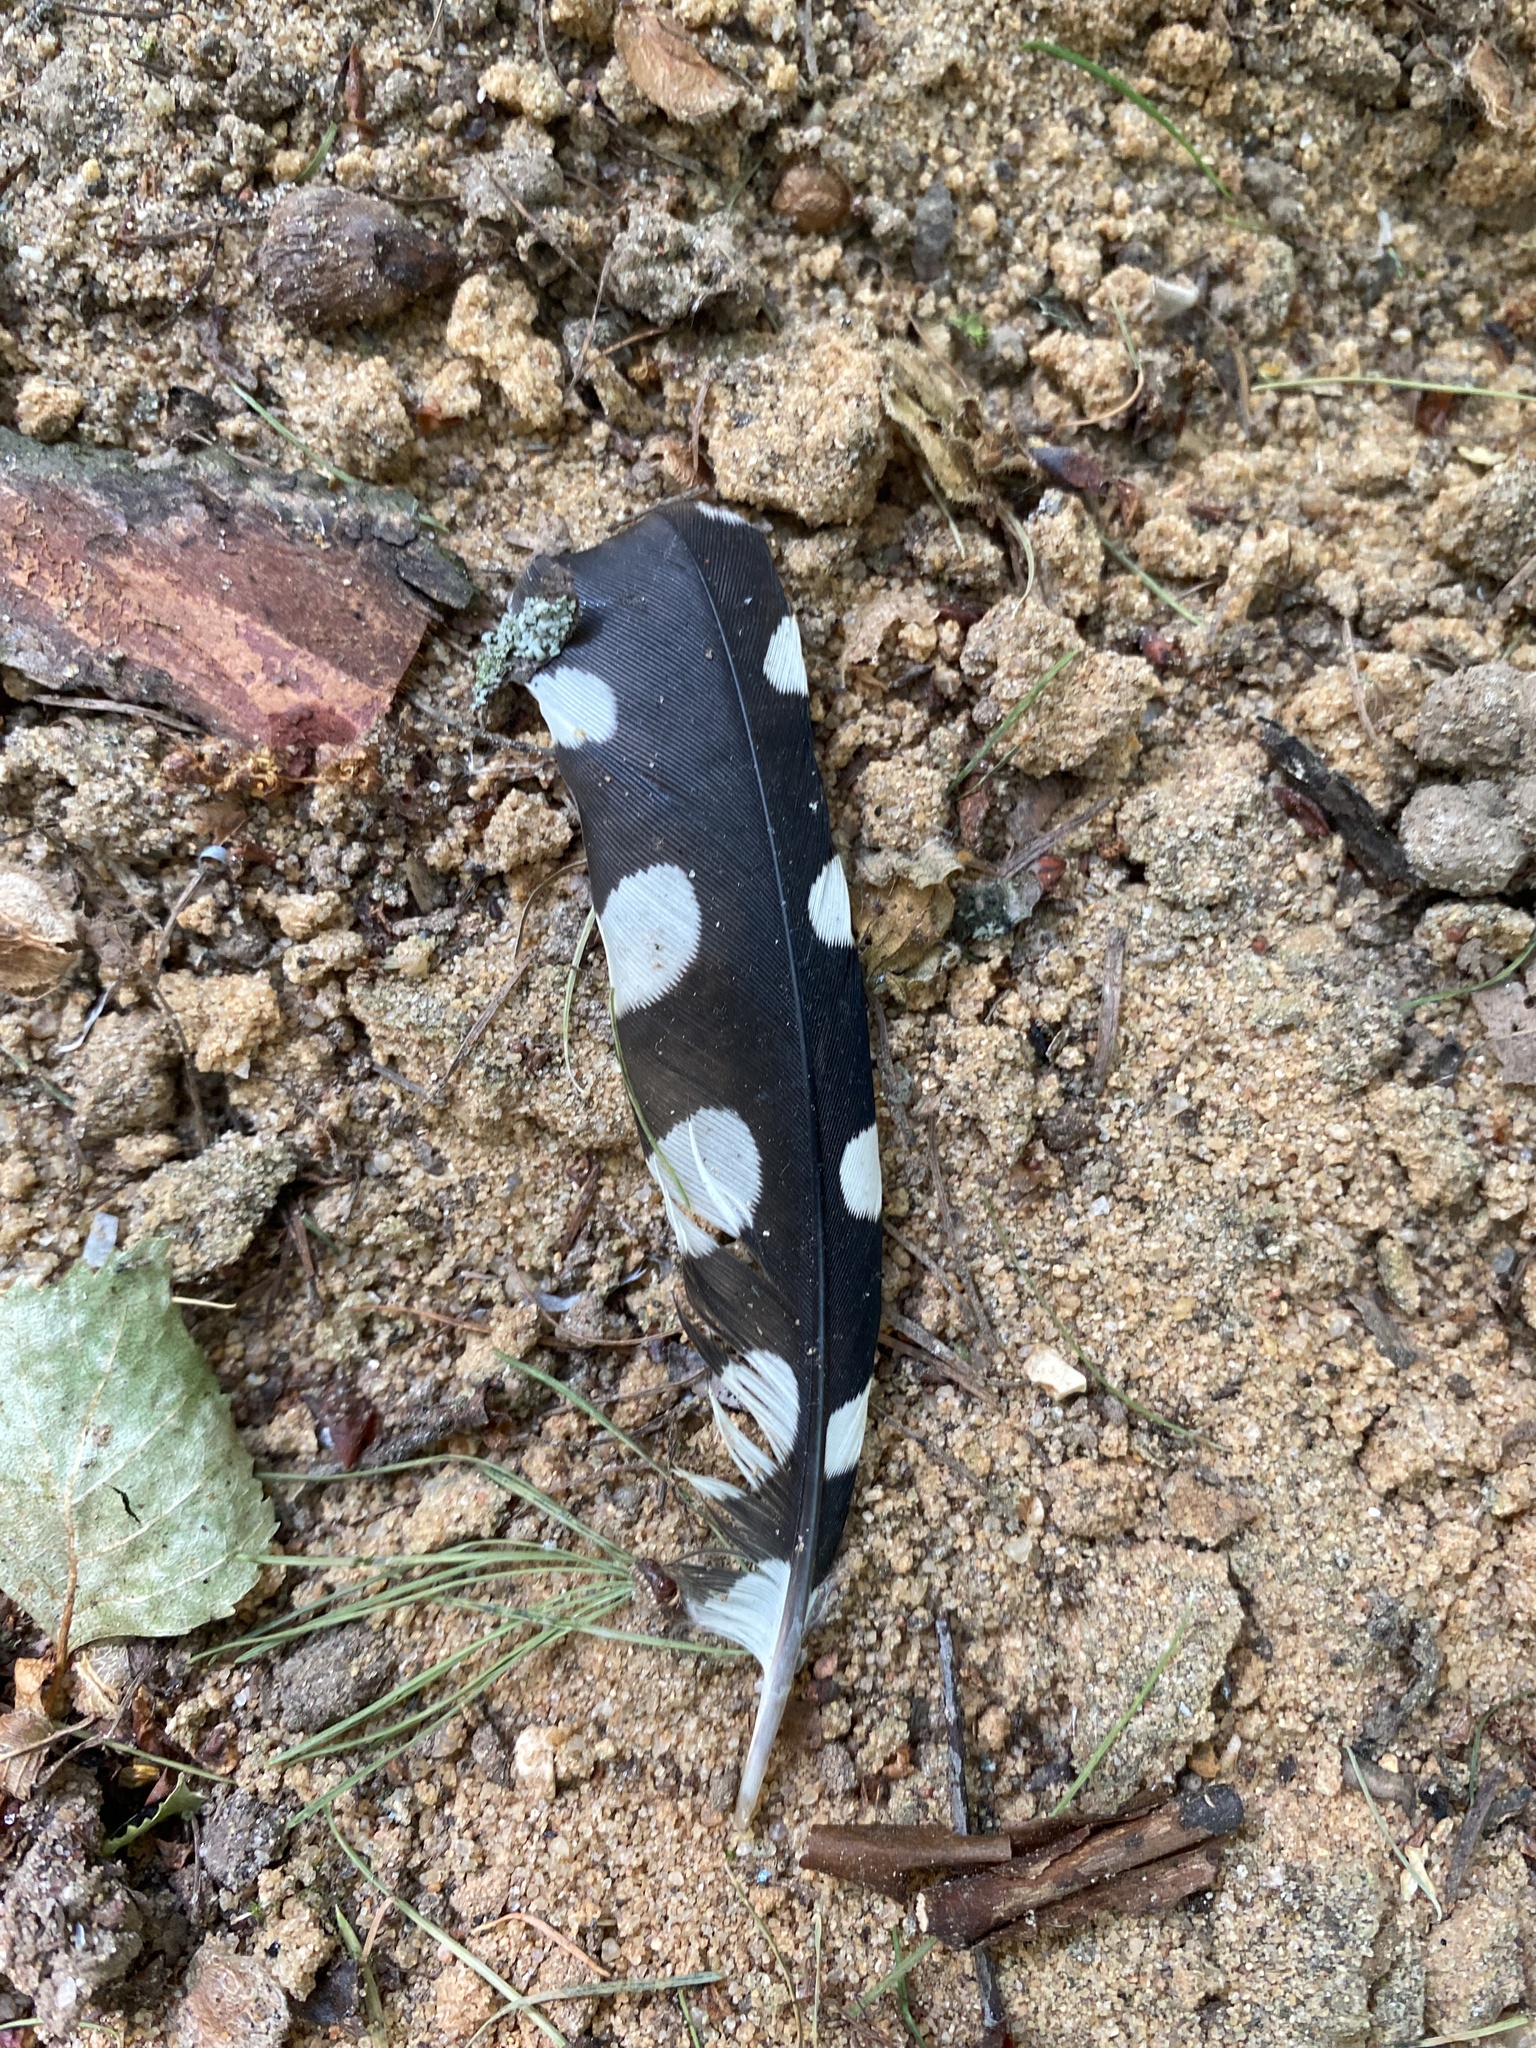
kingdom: Animalia
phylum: Chordata
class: Aves
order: Piciformes
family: Picidae
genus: Dendrocopos
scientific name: Dendrocopos major
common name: Great spotted woodpecker
